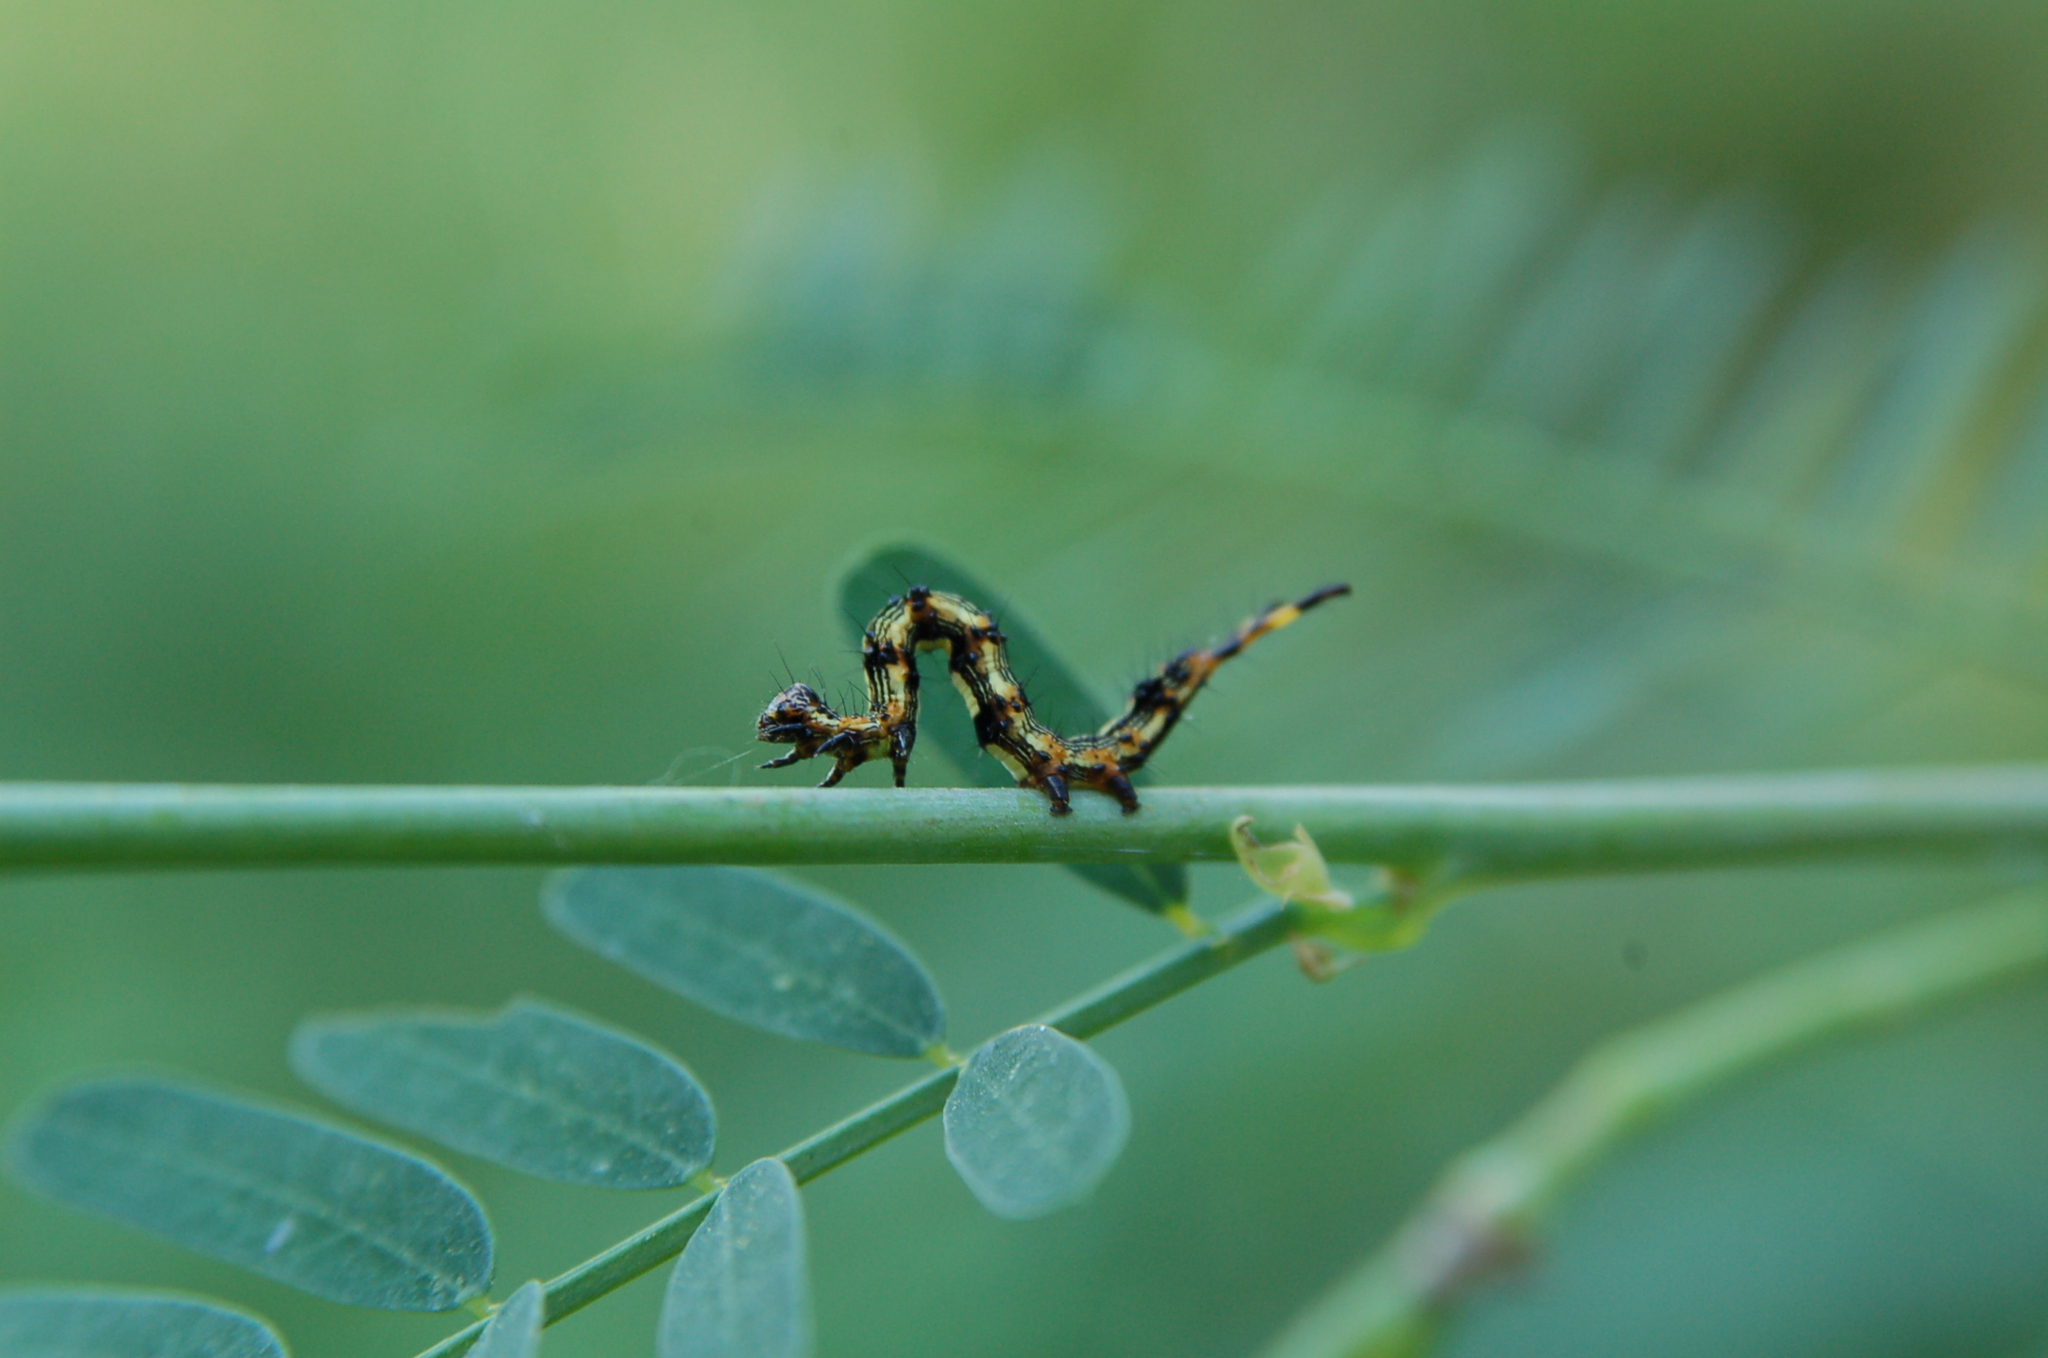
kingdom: Animalia
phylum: Arthropoda
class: Insecta
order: Lepidoptera
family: Erebidae
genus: Selenisa
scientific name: Selenisa sueroides
